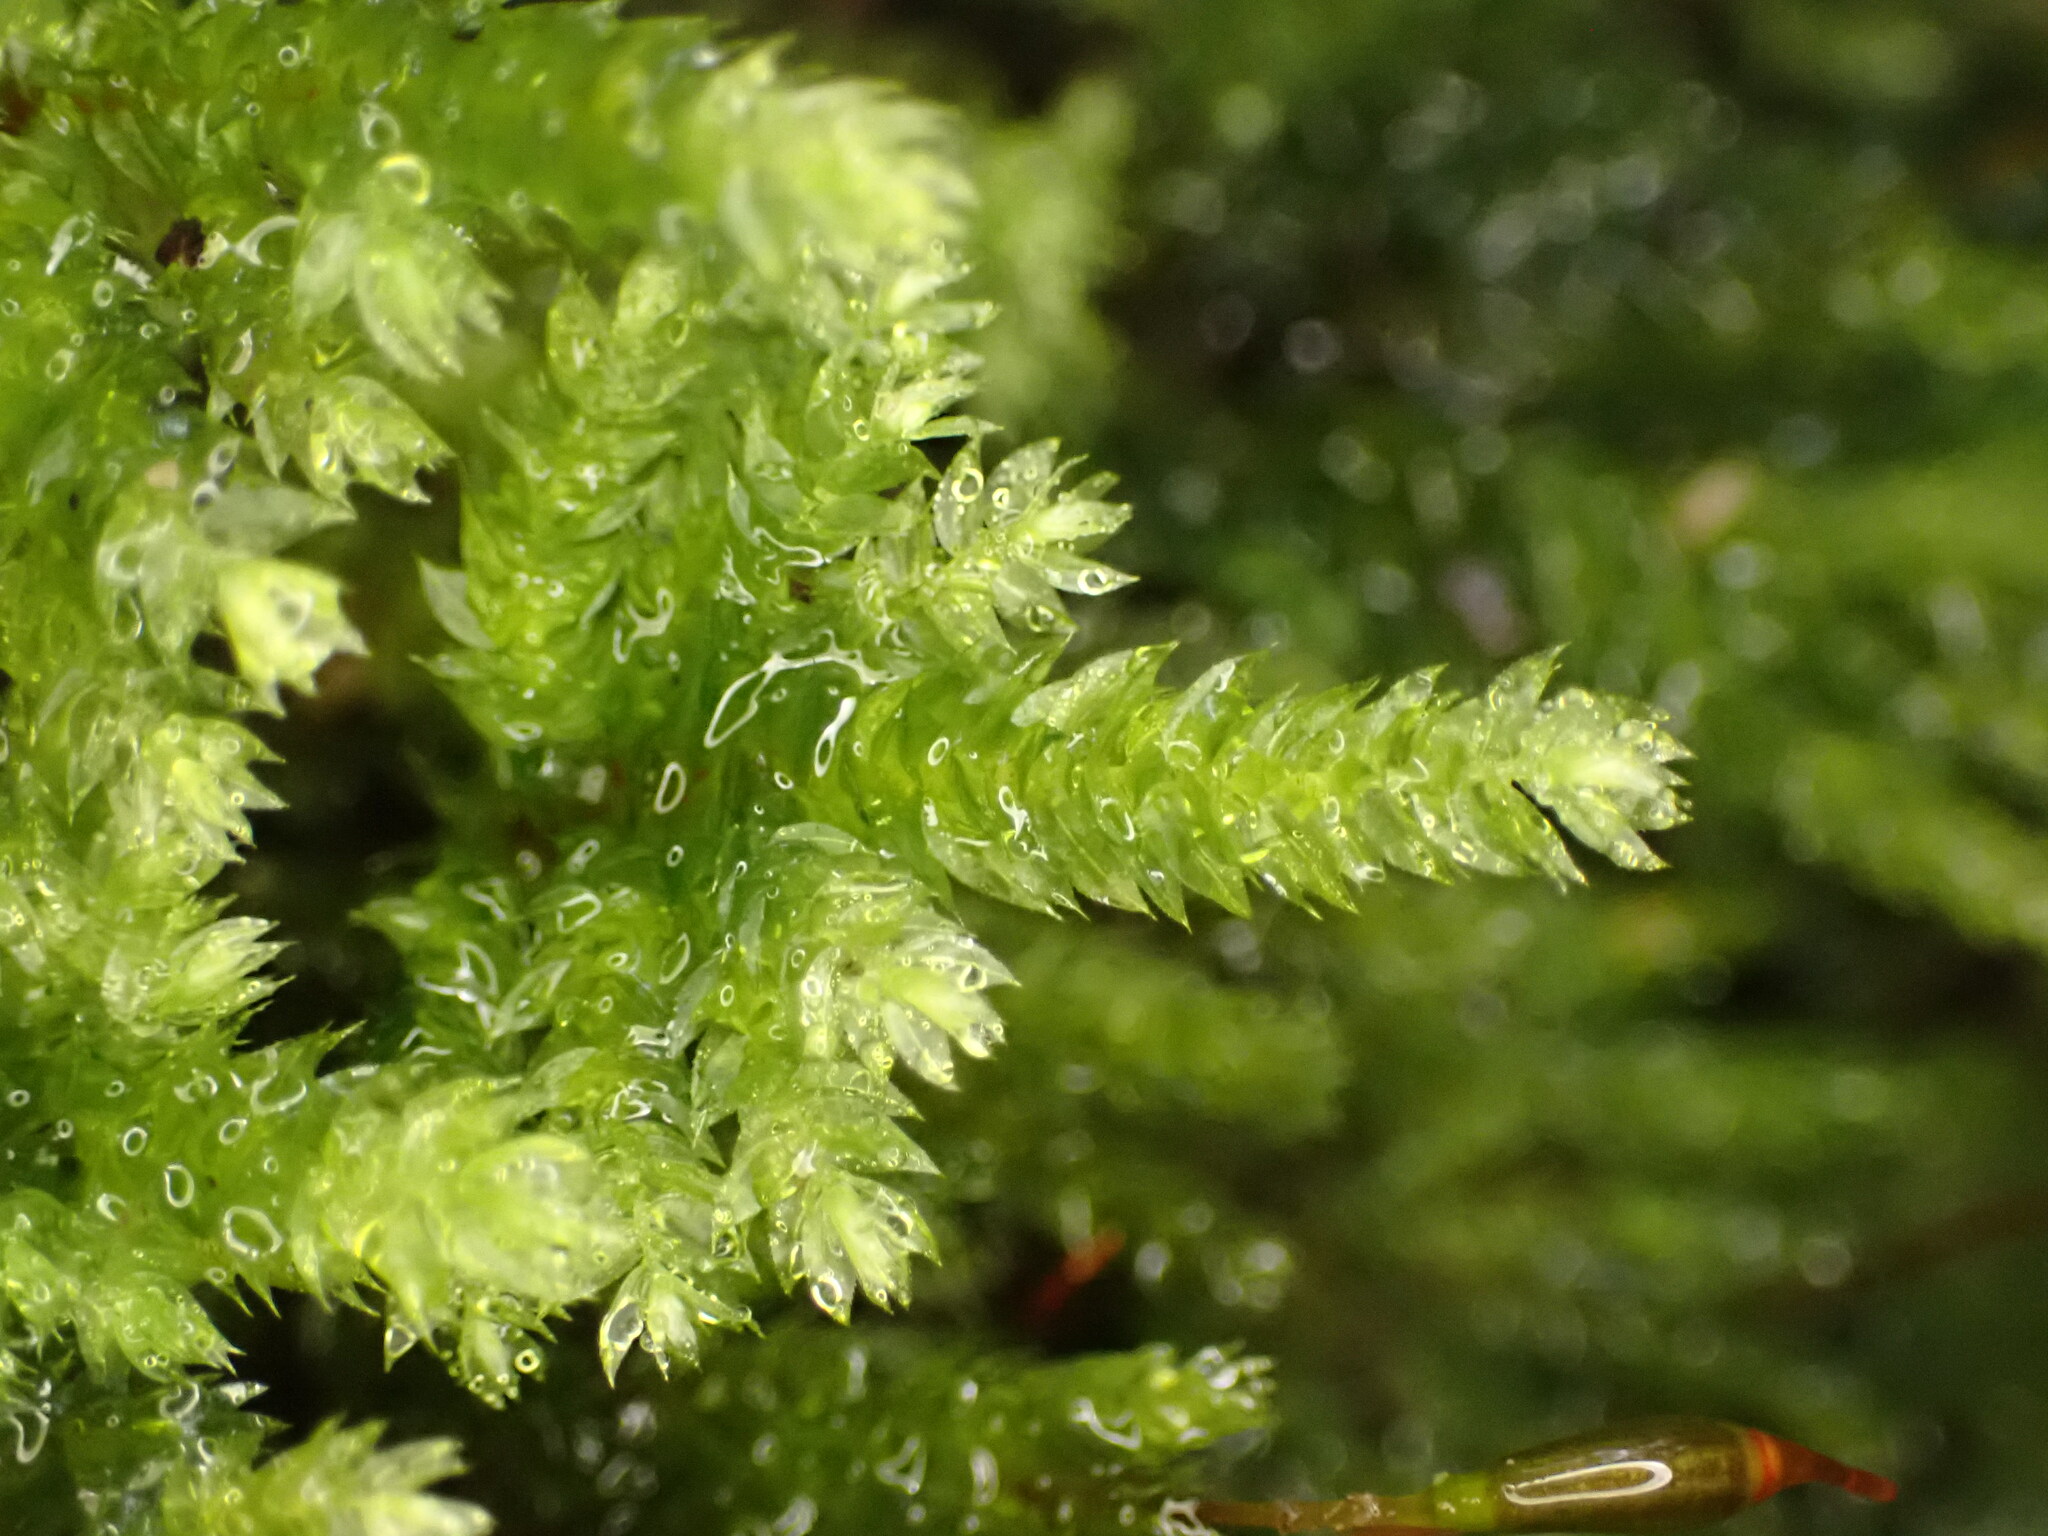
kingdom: Plantae
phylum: Bryophyta
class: Bryopsida
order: Hypnodendrales
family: Spiridentaceae
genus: Hypnodendron
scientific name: Hypnodendron arcuatum
